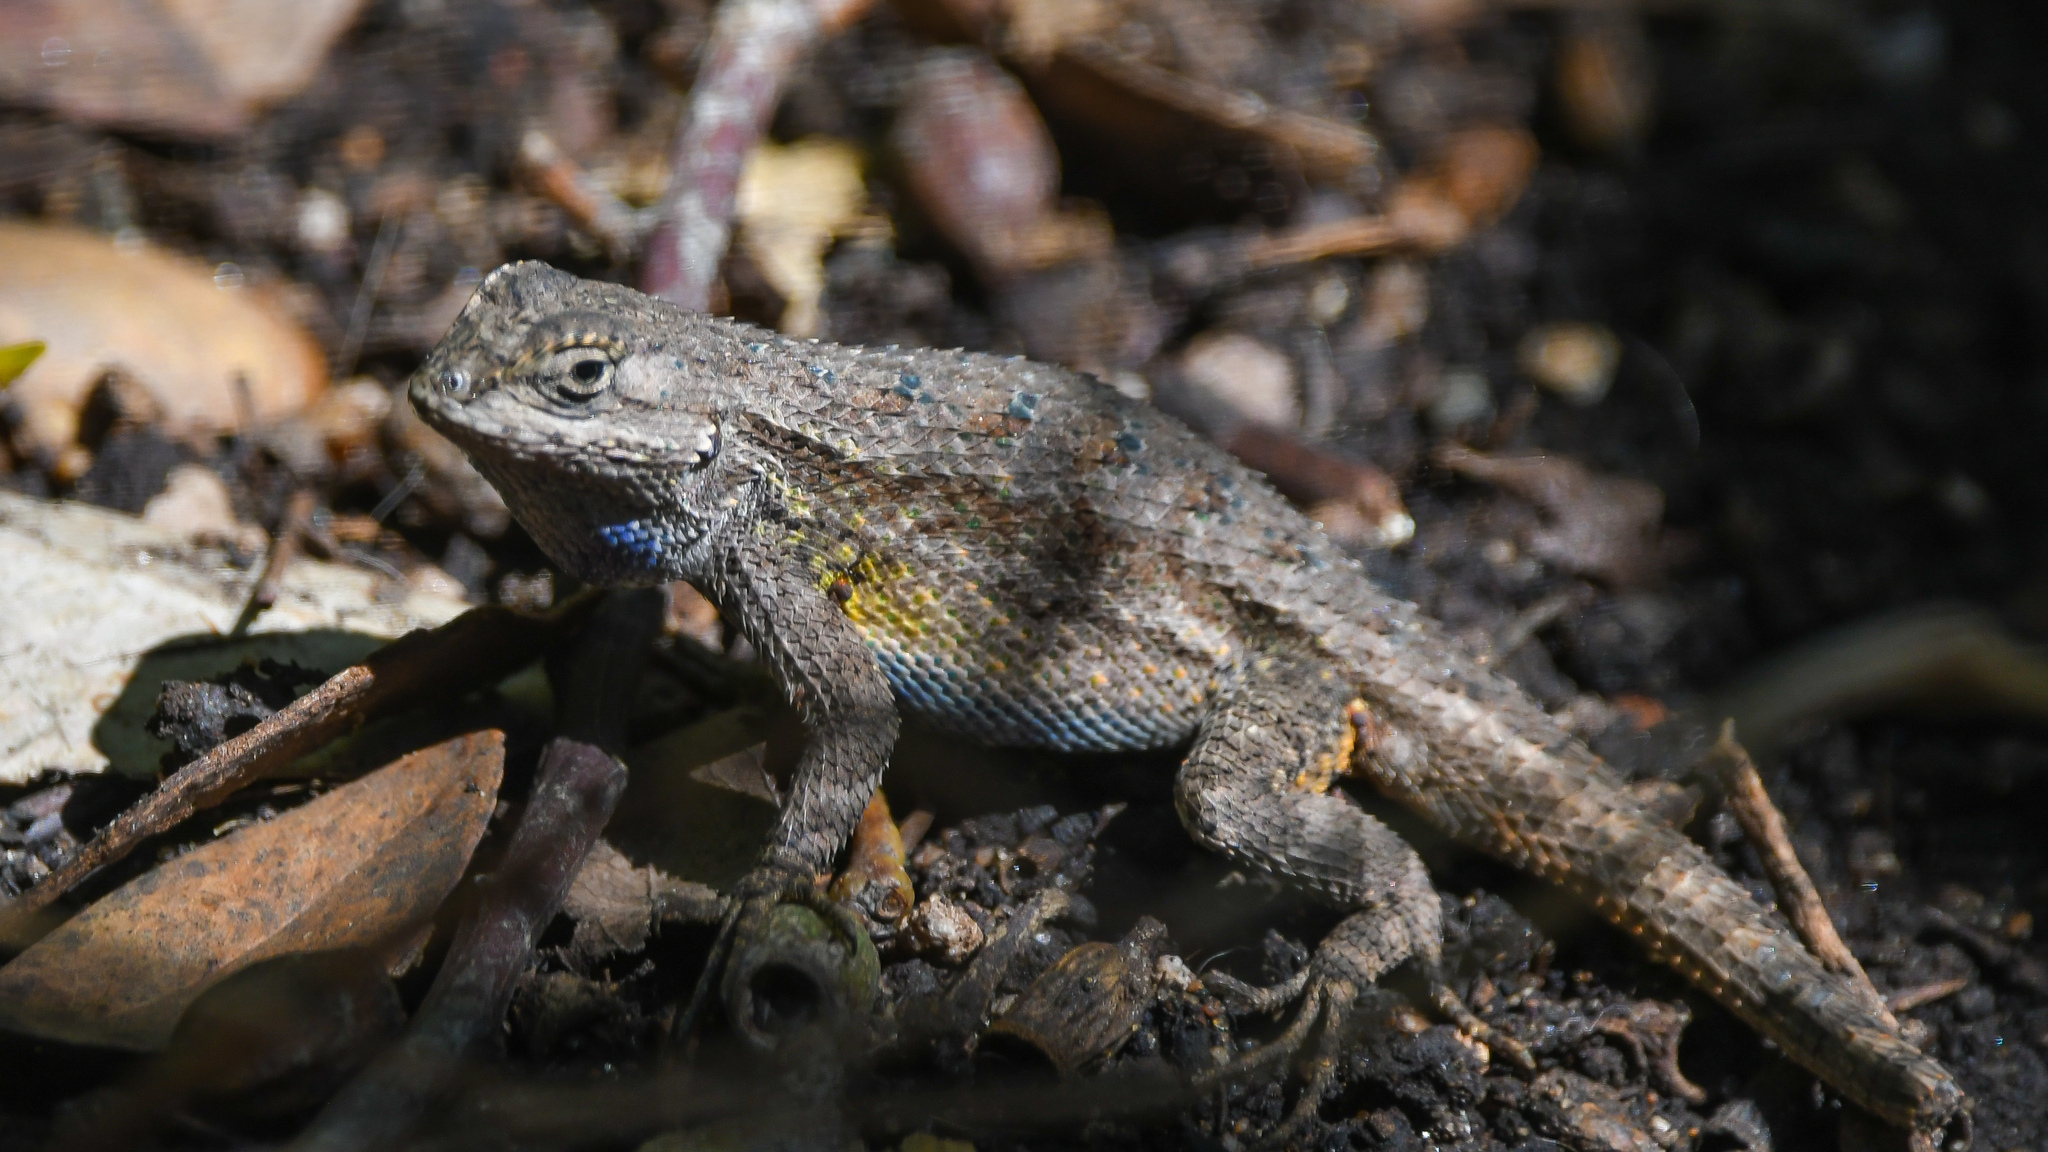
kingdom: Animalia
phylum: Chordata
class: Squamata
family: Phrynosomatidae
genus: Sceloporus
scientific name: Sceloporus occidentalis
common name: Western fence lizard
